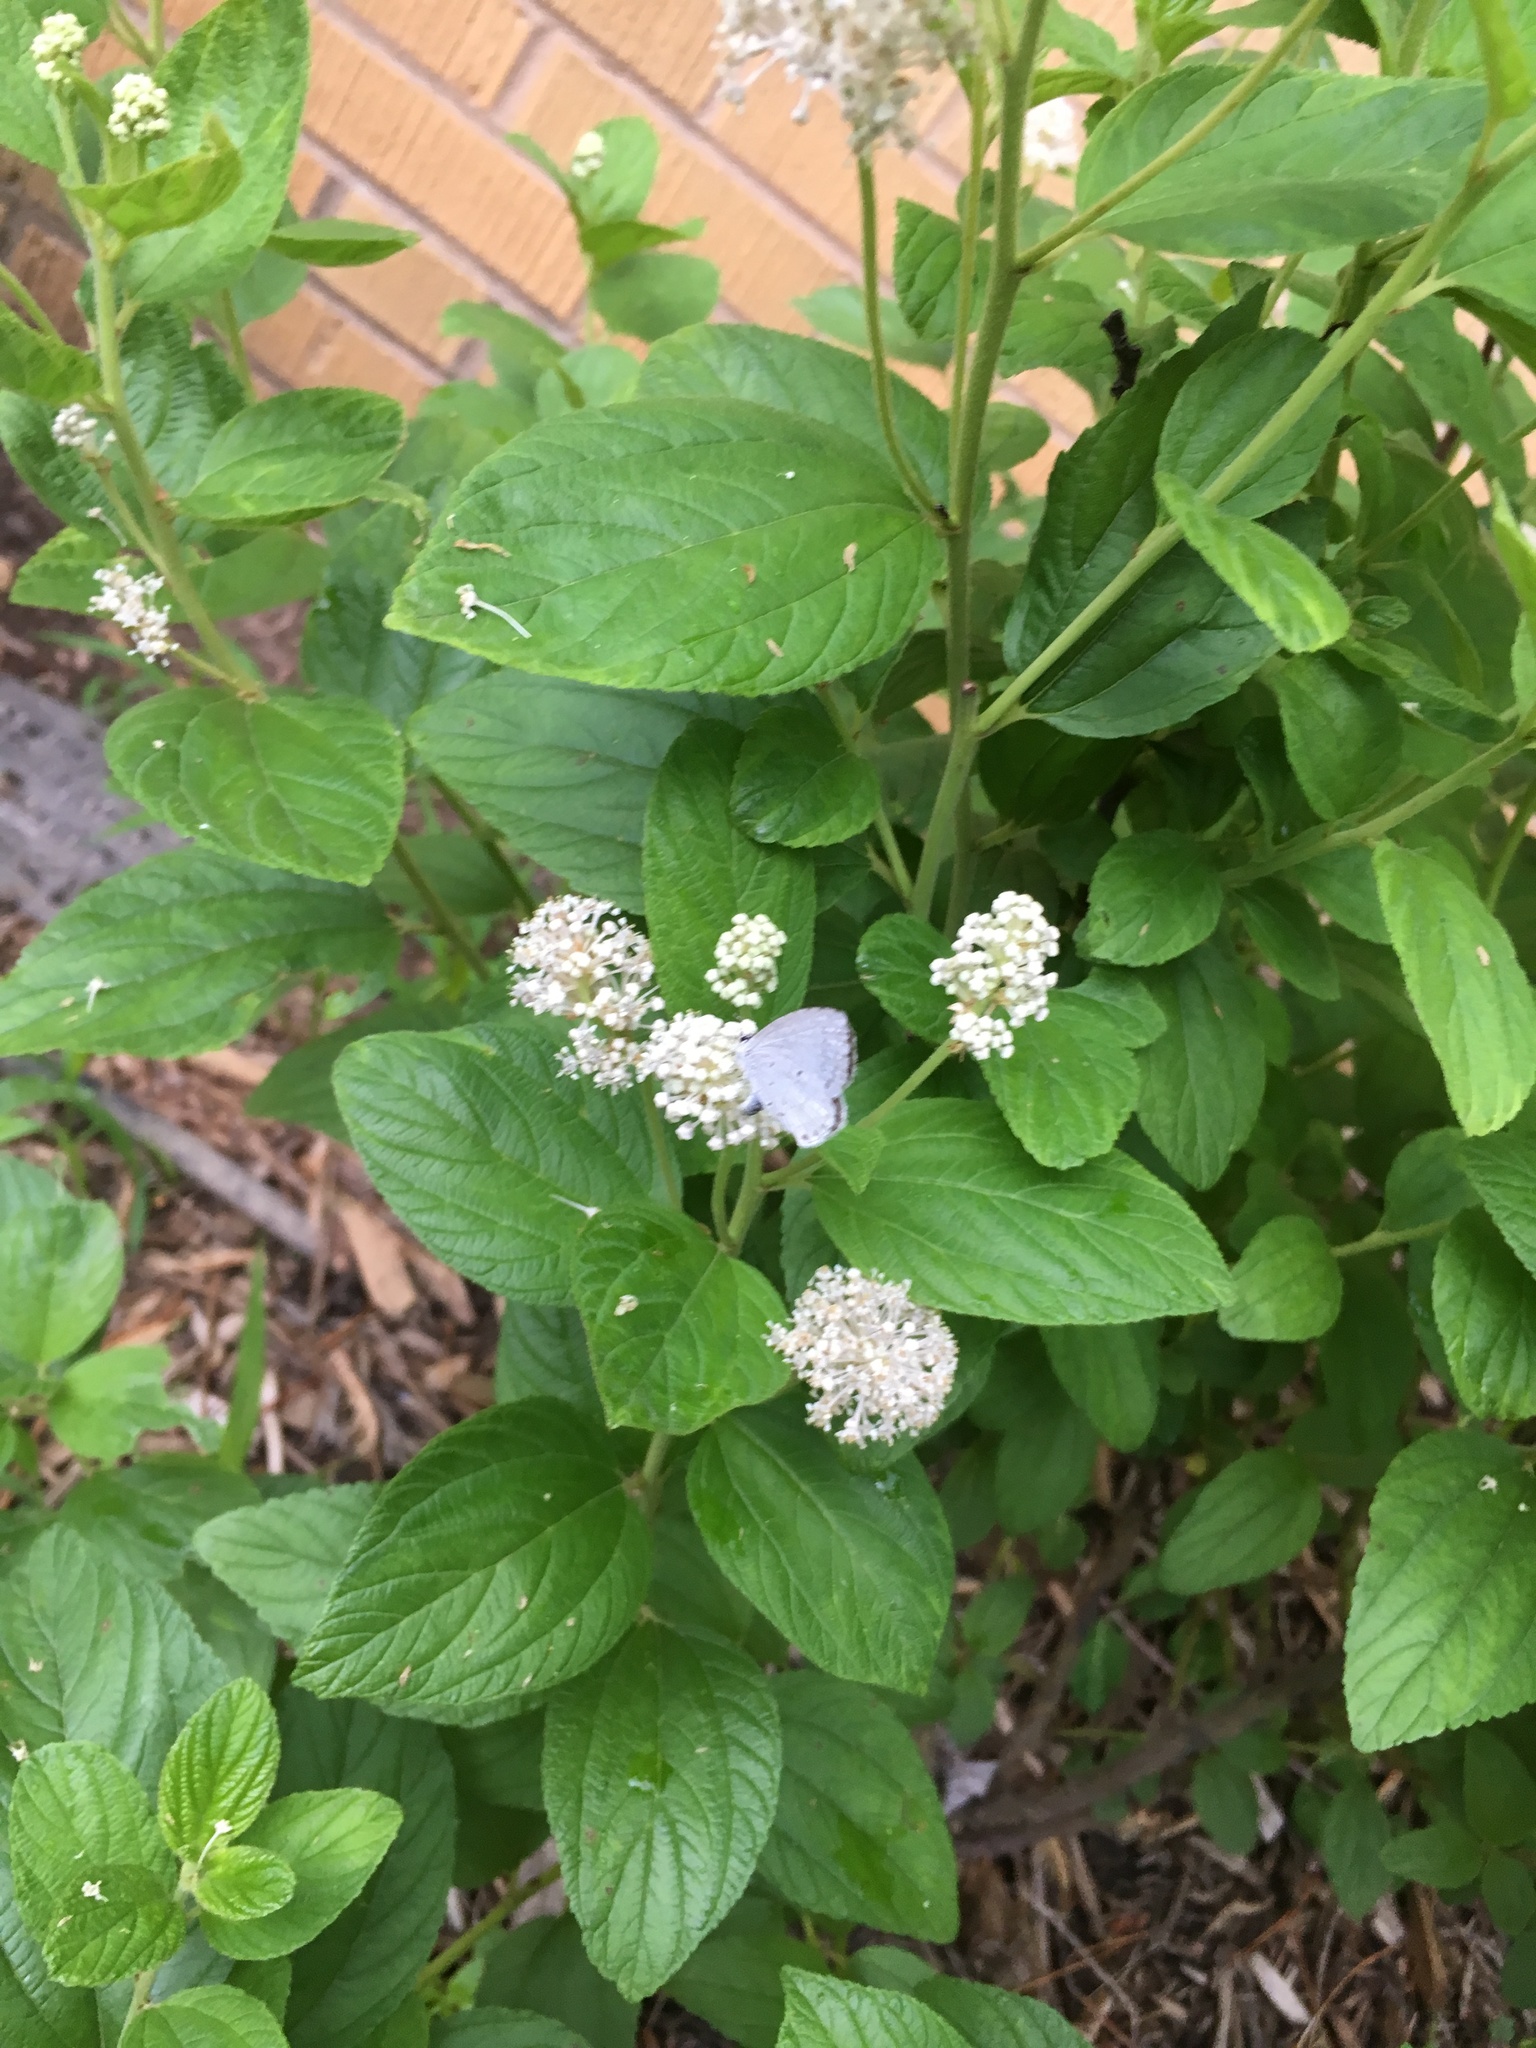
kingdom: Animalia
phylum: Arthropoda
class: Insecta
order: Lepidoptera
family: Lycaenidae
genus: Cyaniris
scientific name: Cyaniris neglecta
